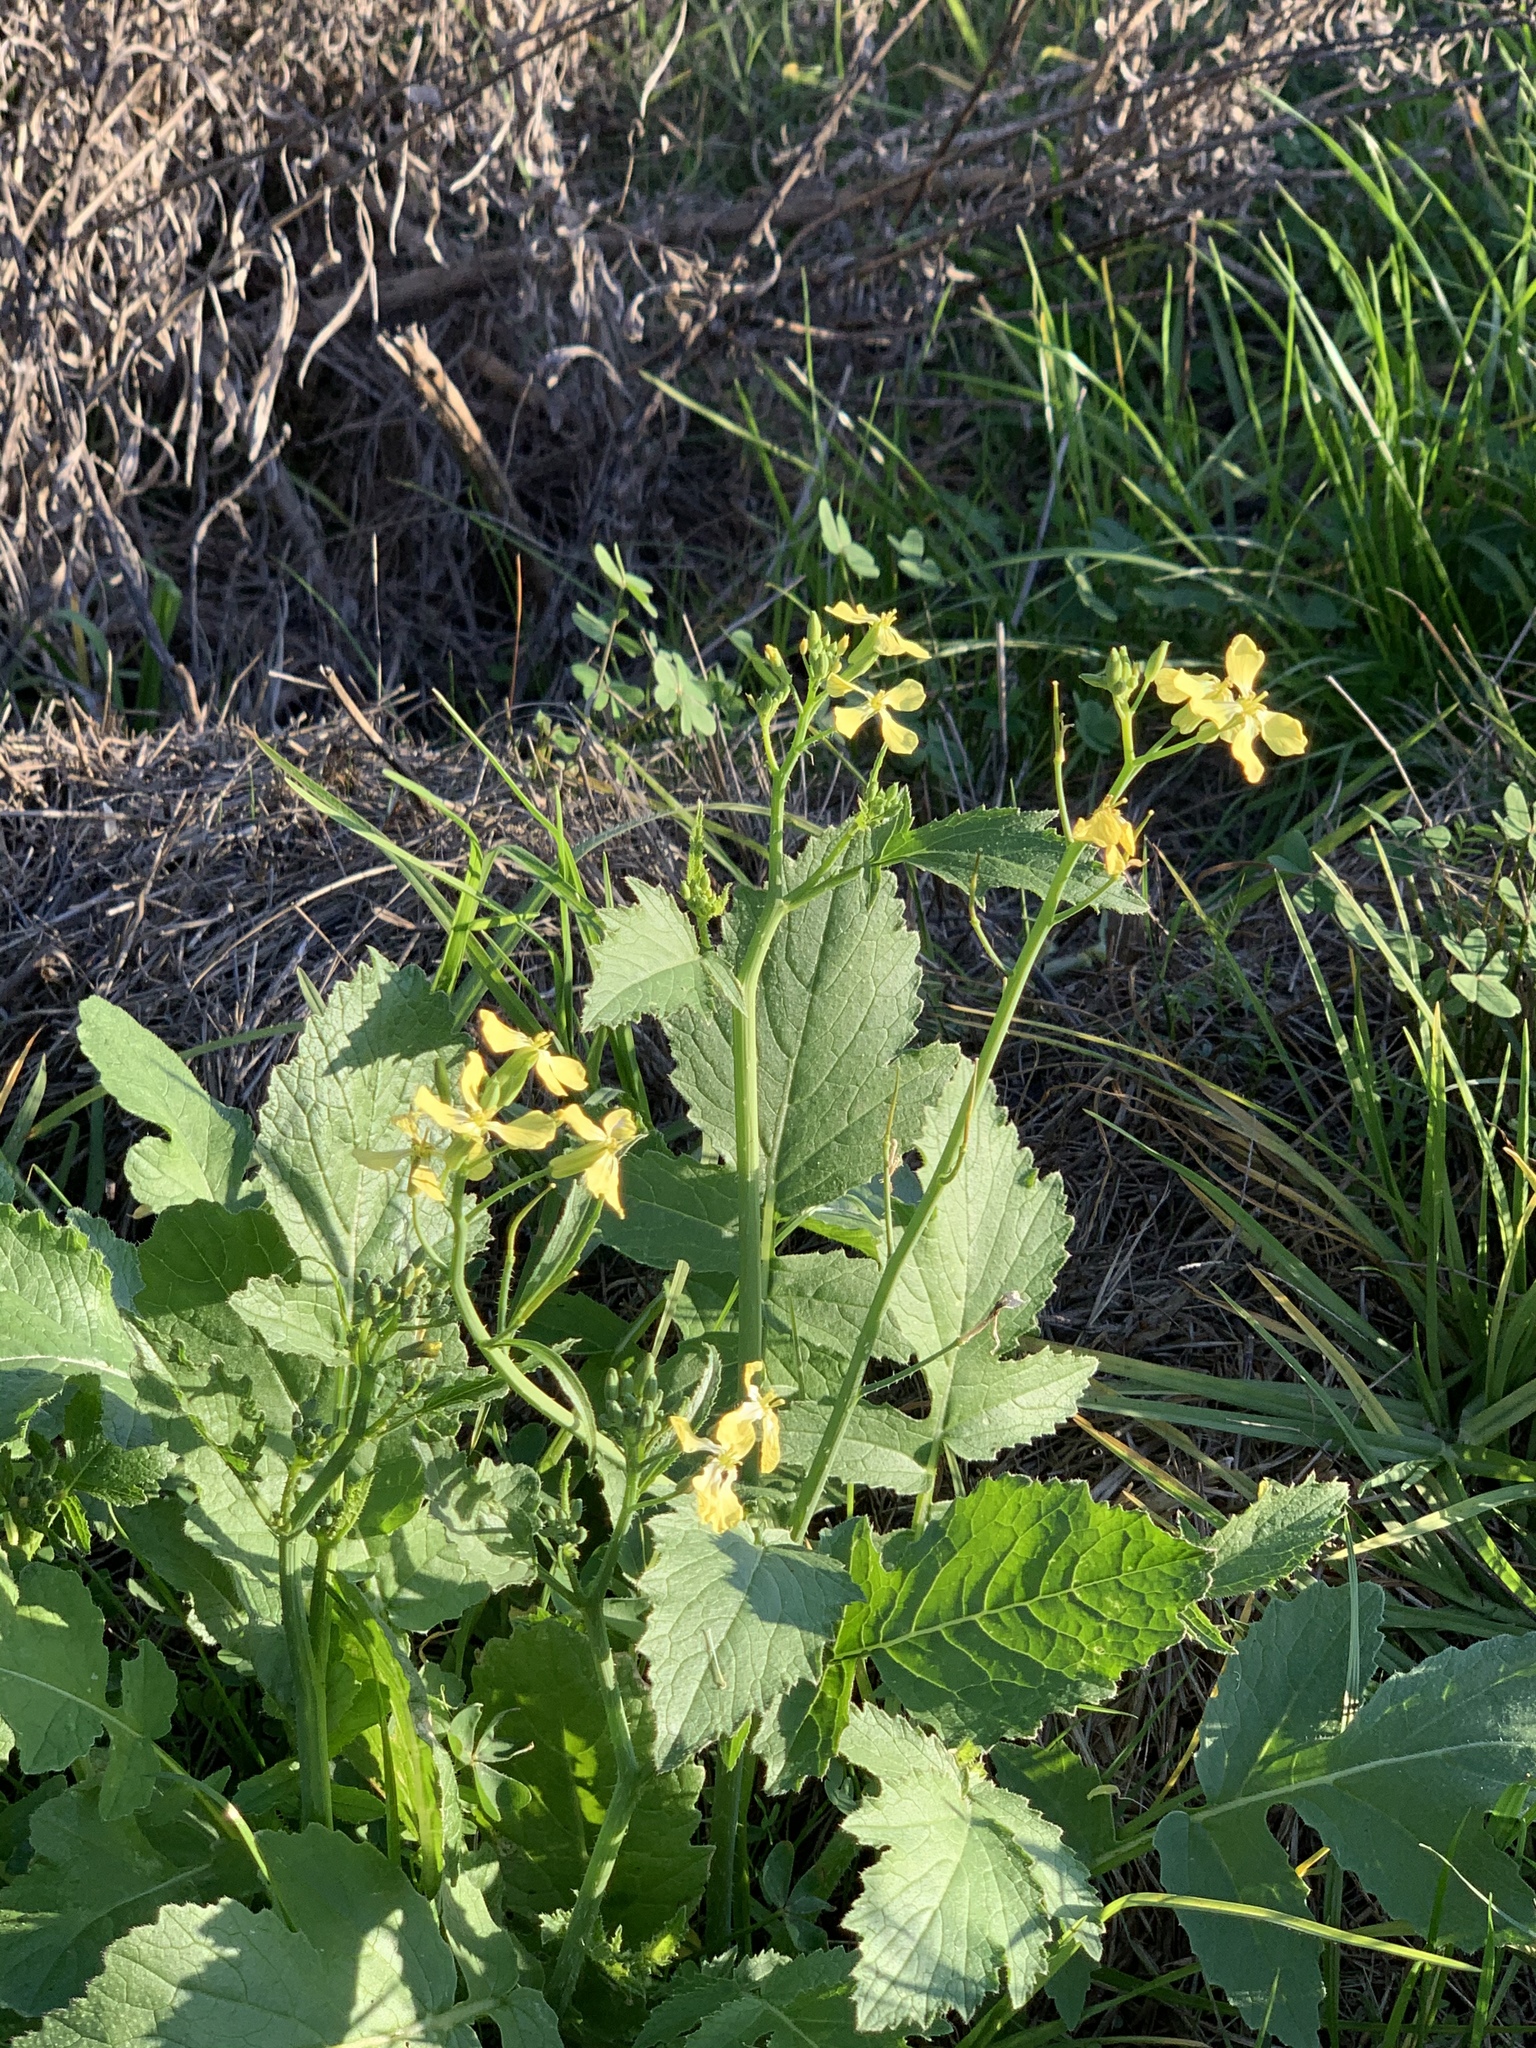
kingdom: Plantae
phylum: Tracheophyta
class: Magnoliopsida
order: Brassicales
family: Brassicaceae
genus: Raphanus
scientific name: Raphanus raphanistrum
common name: Wild radish
